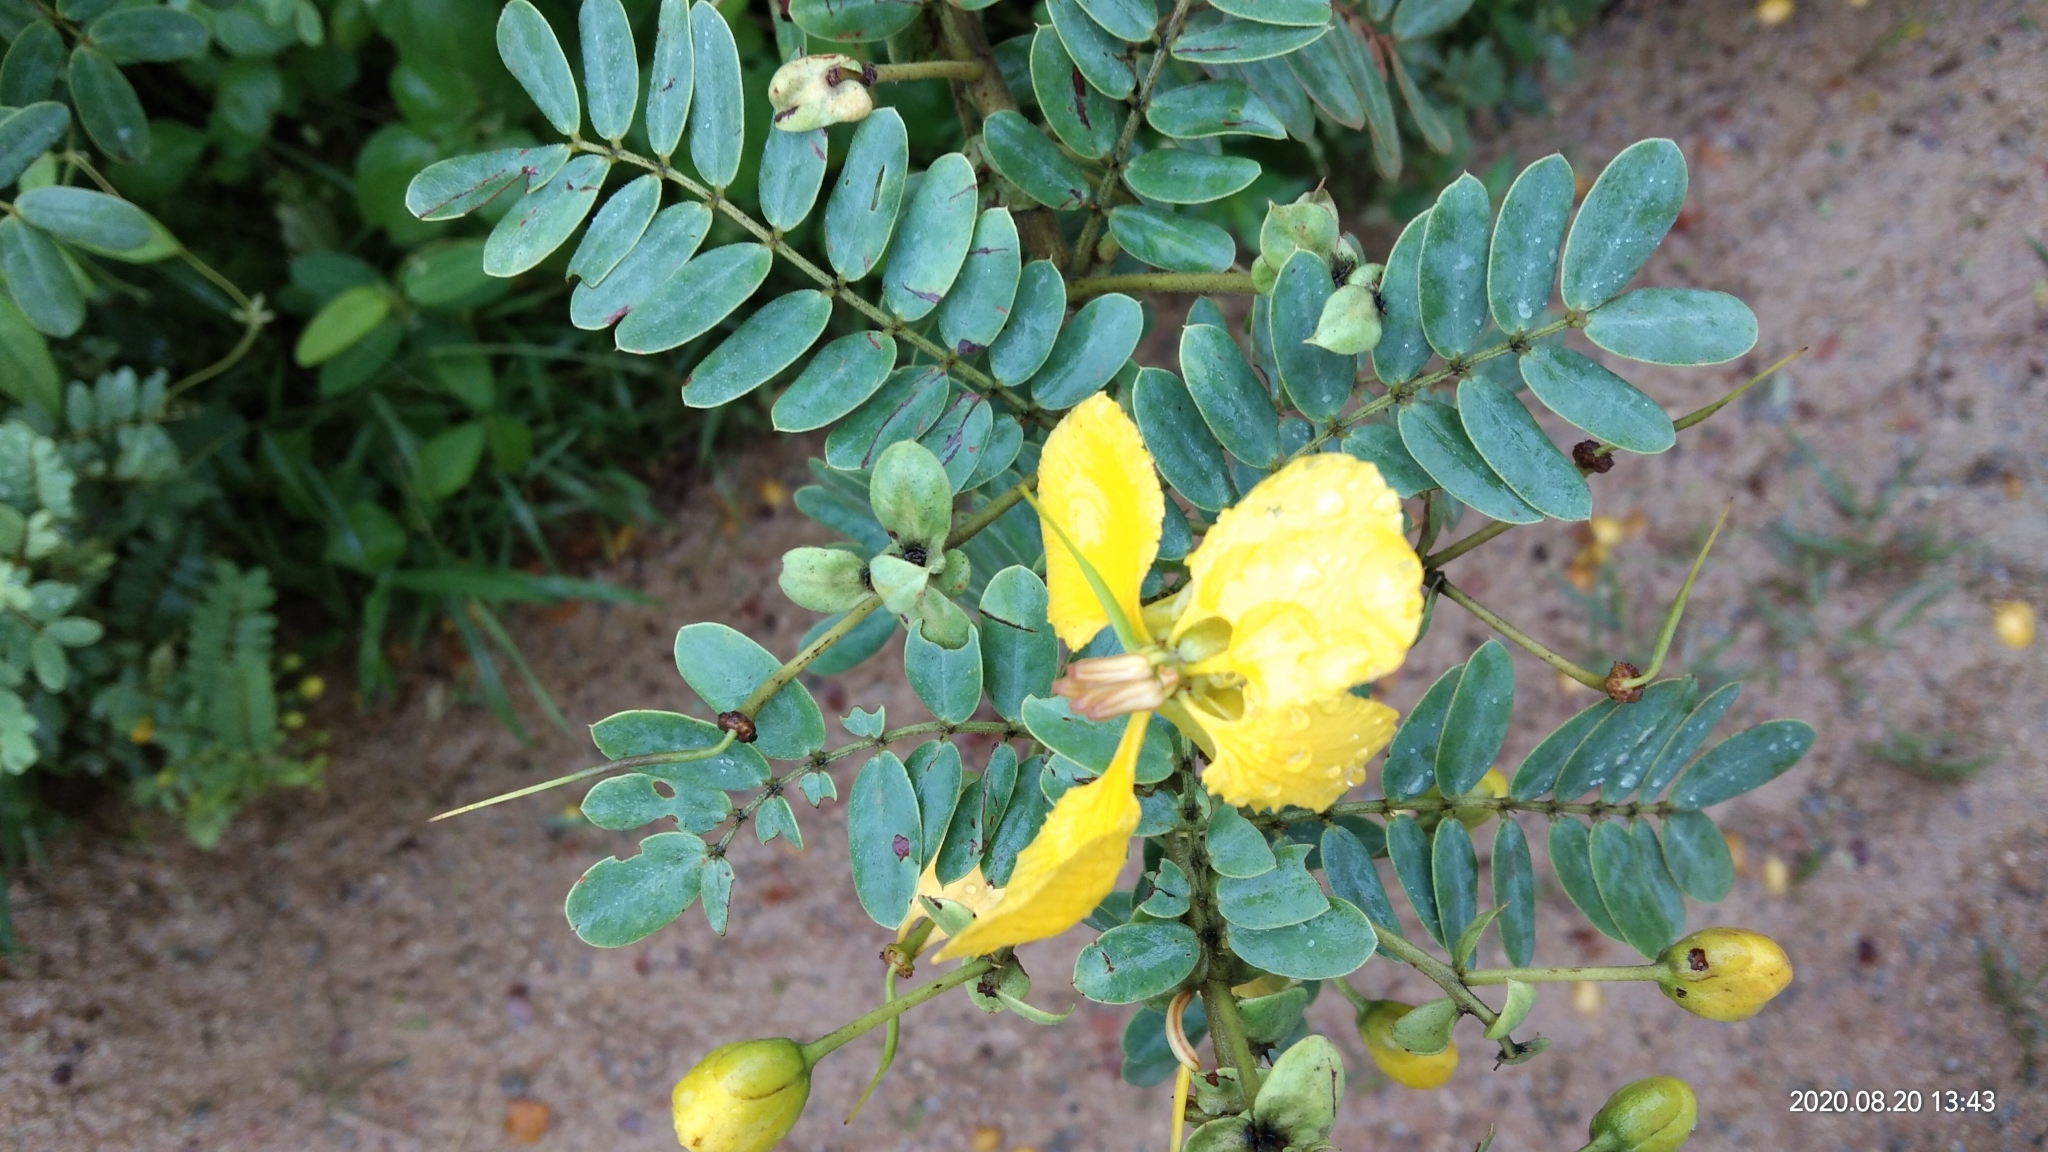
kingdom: Plantae
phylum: Tracheophyta
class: Magnoliopsida
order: Fabales
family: Fabaceae
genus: Senna
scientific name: Senna auriculata
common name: Tanner's cassia
